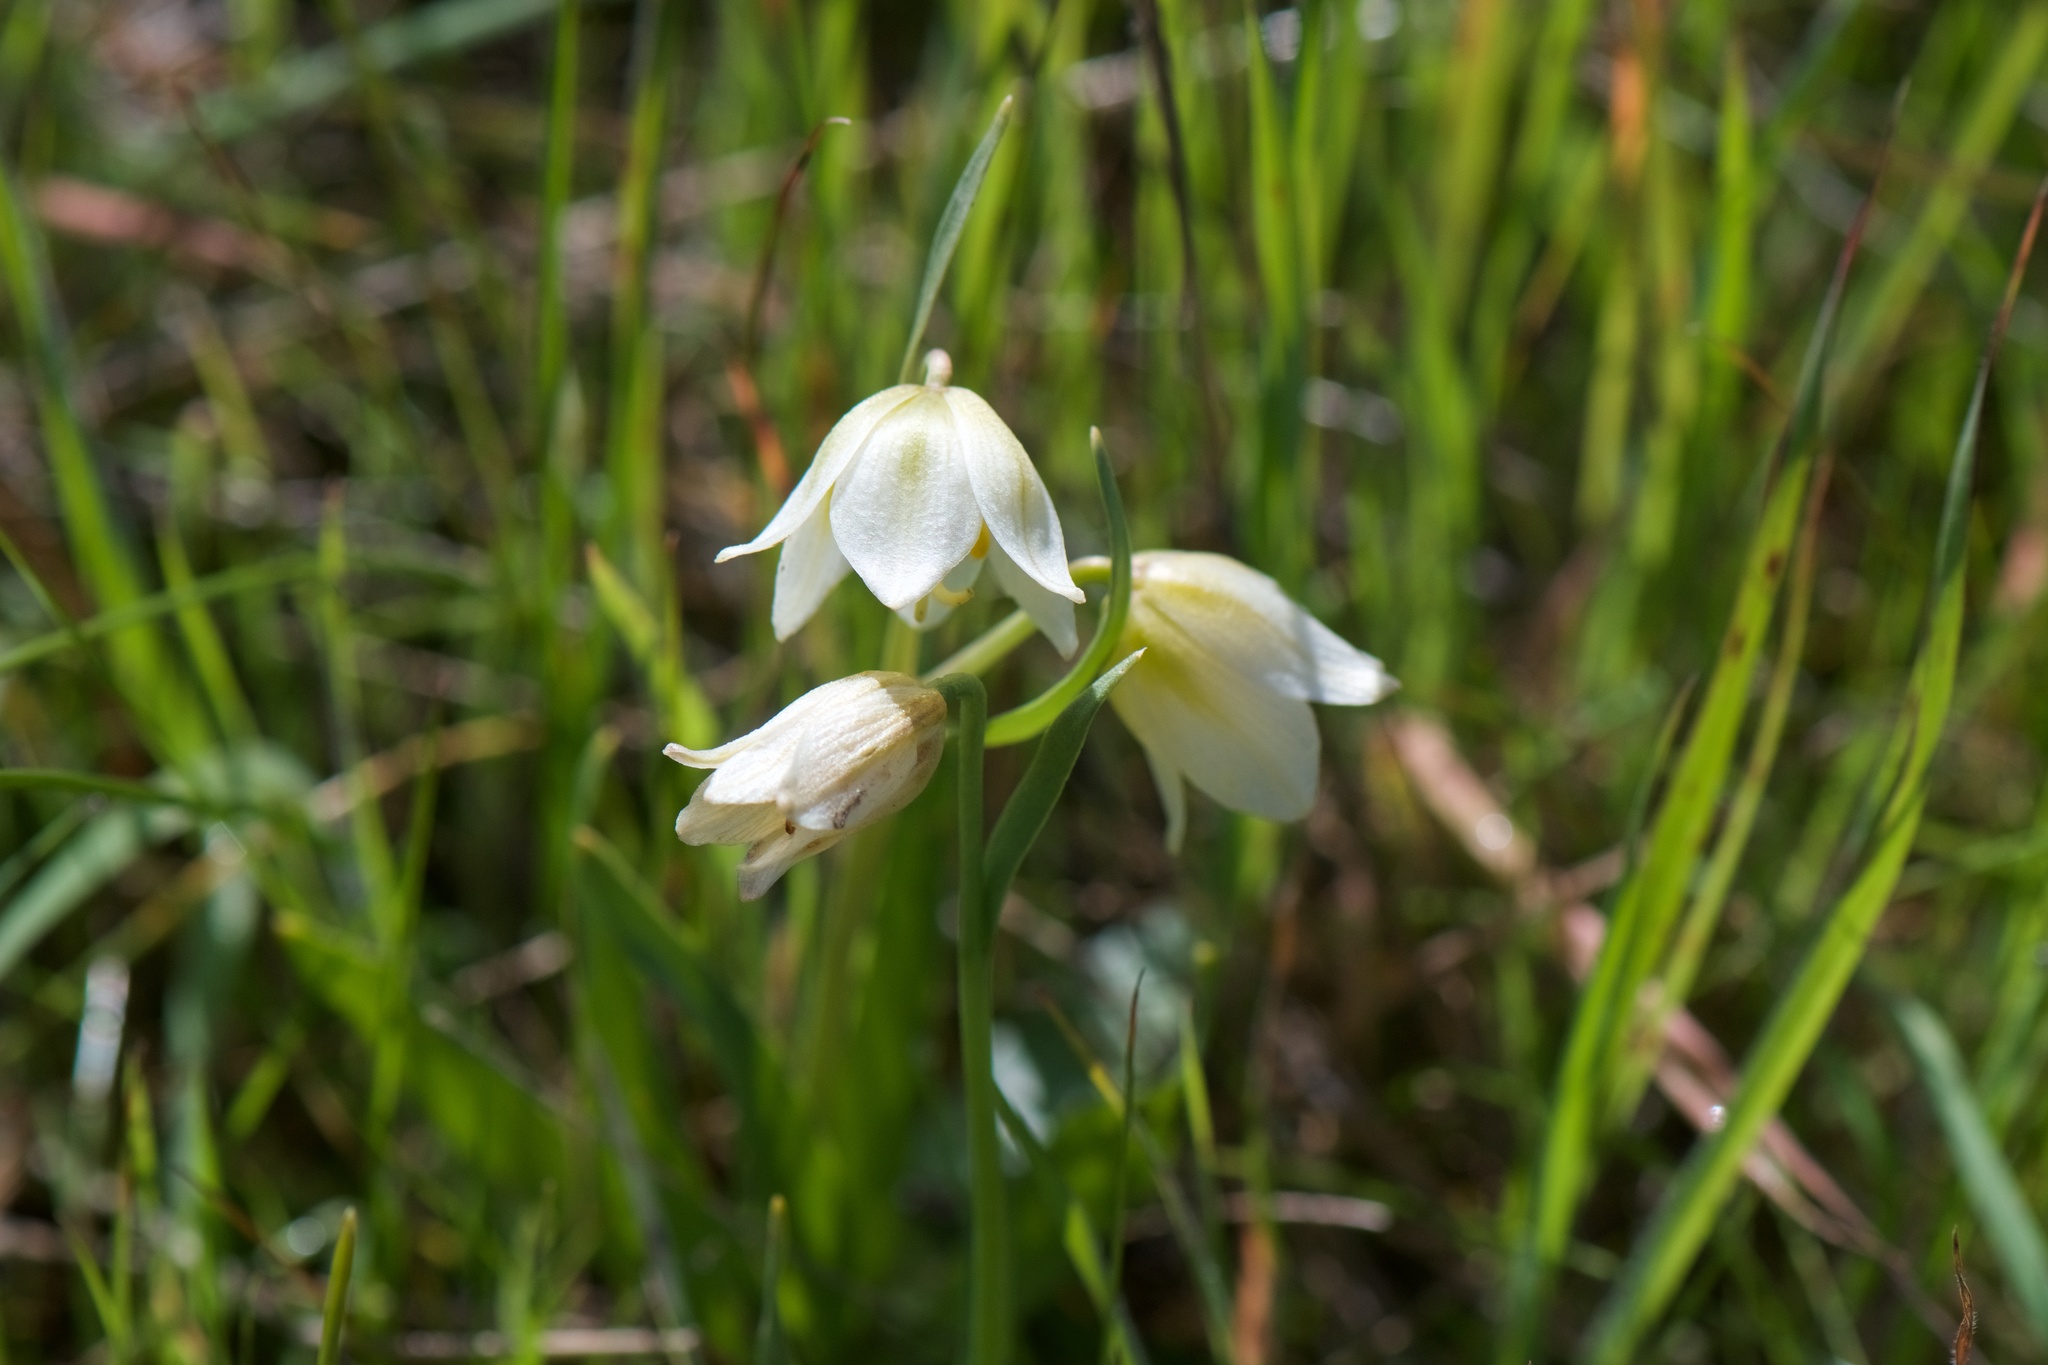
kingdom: Plantae
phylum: Tracheophyta
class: Liliopsida
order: Liliales
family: Liliaceae
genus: Fritillaria
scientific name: Fritillaria liliacea
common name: Fragrant fritillary
